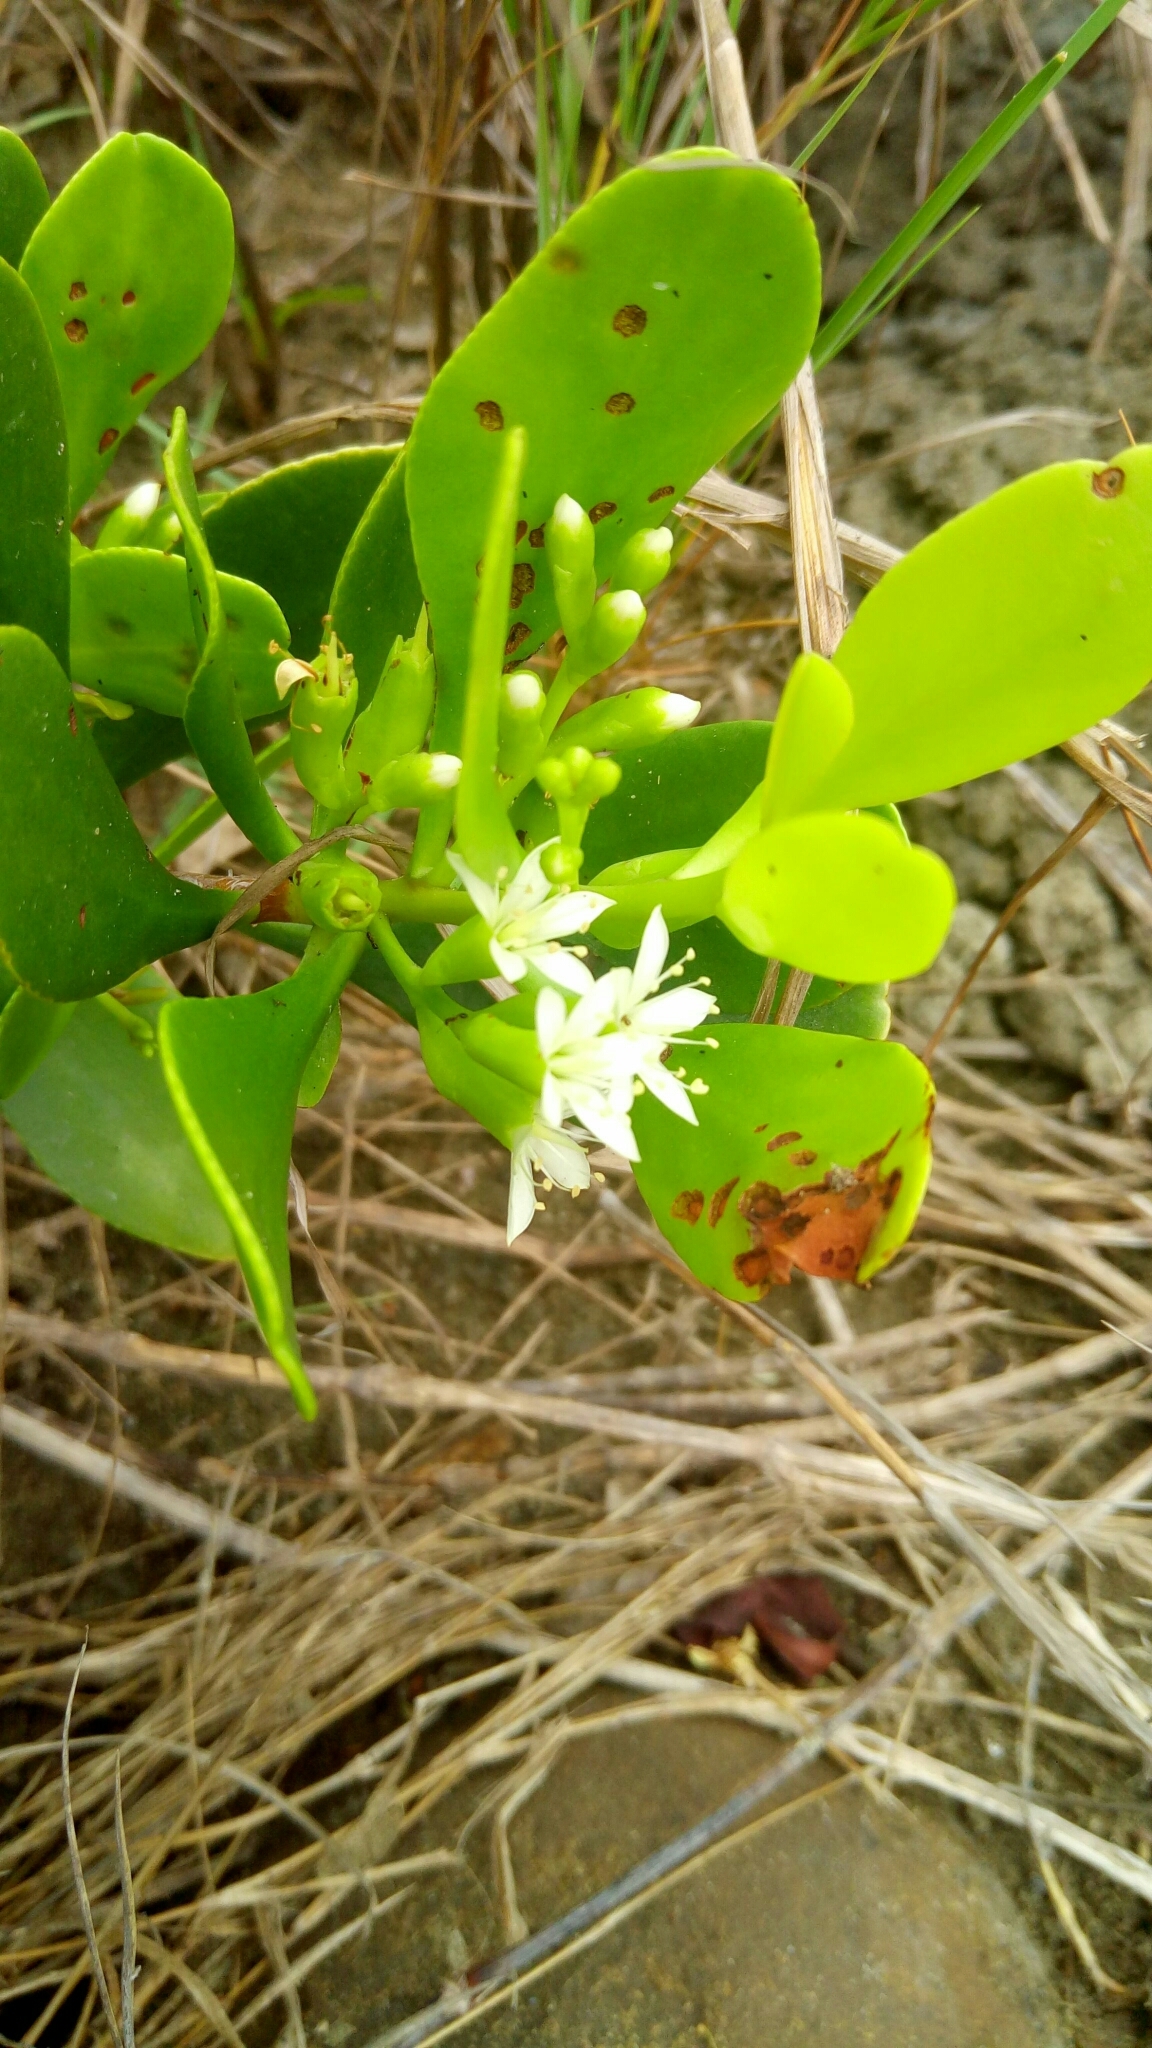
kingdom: Plantae
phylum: Tracheophyta
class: Magnoliopsida
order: Myrtales
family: Combretaceae
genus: Lumnitzera
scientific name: Lumnitzera racemosa
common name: White-flowered black mangrove
